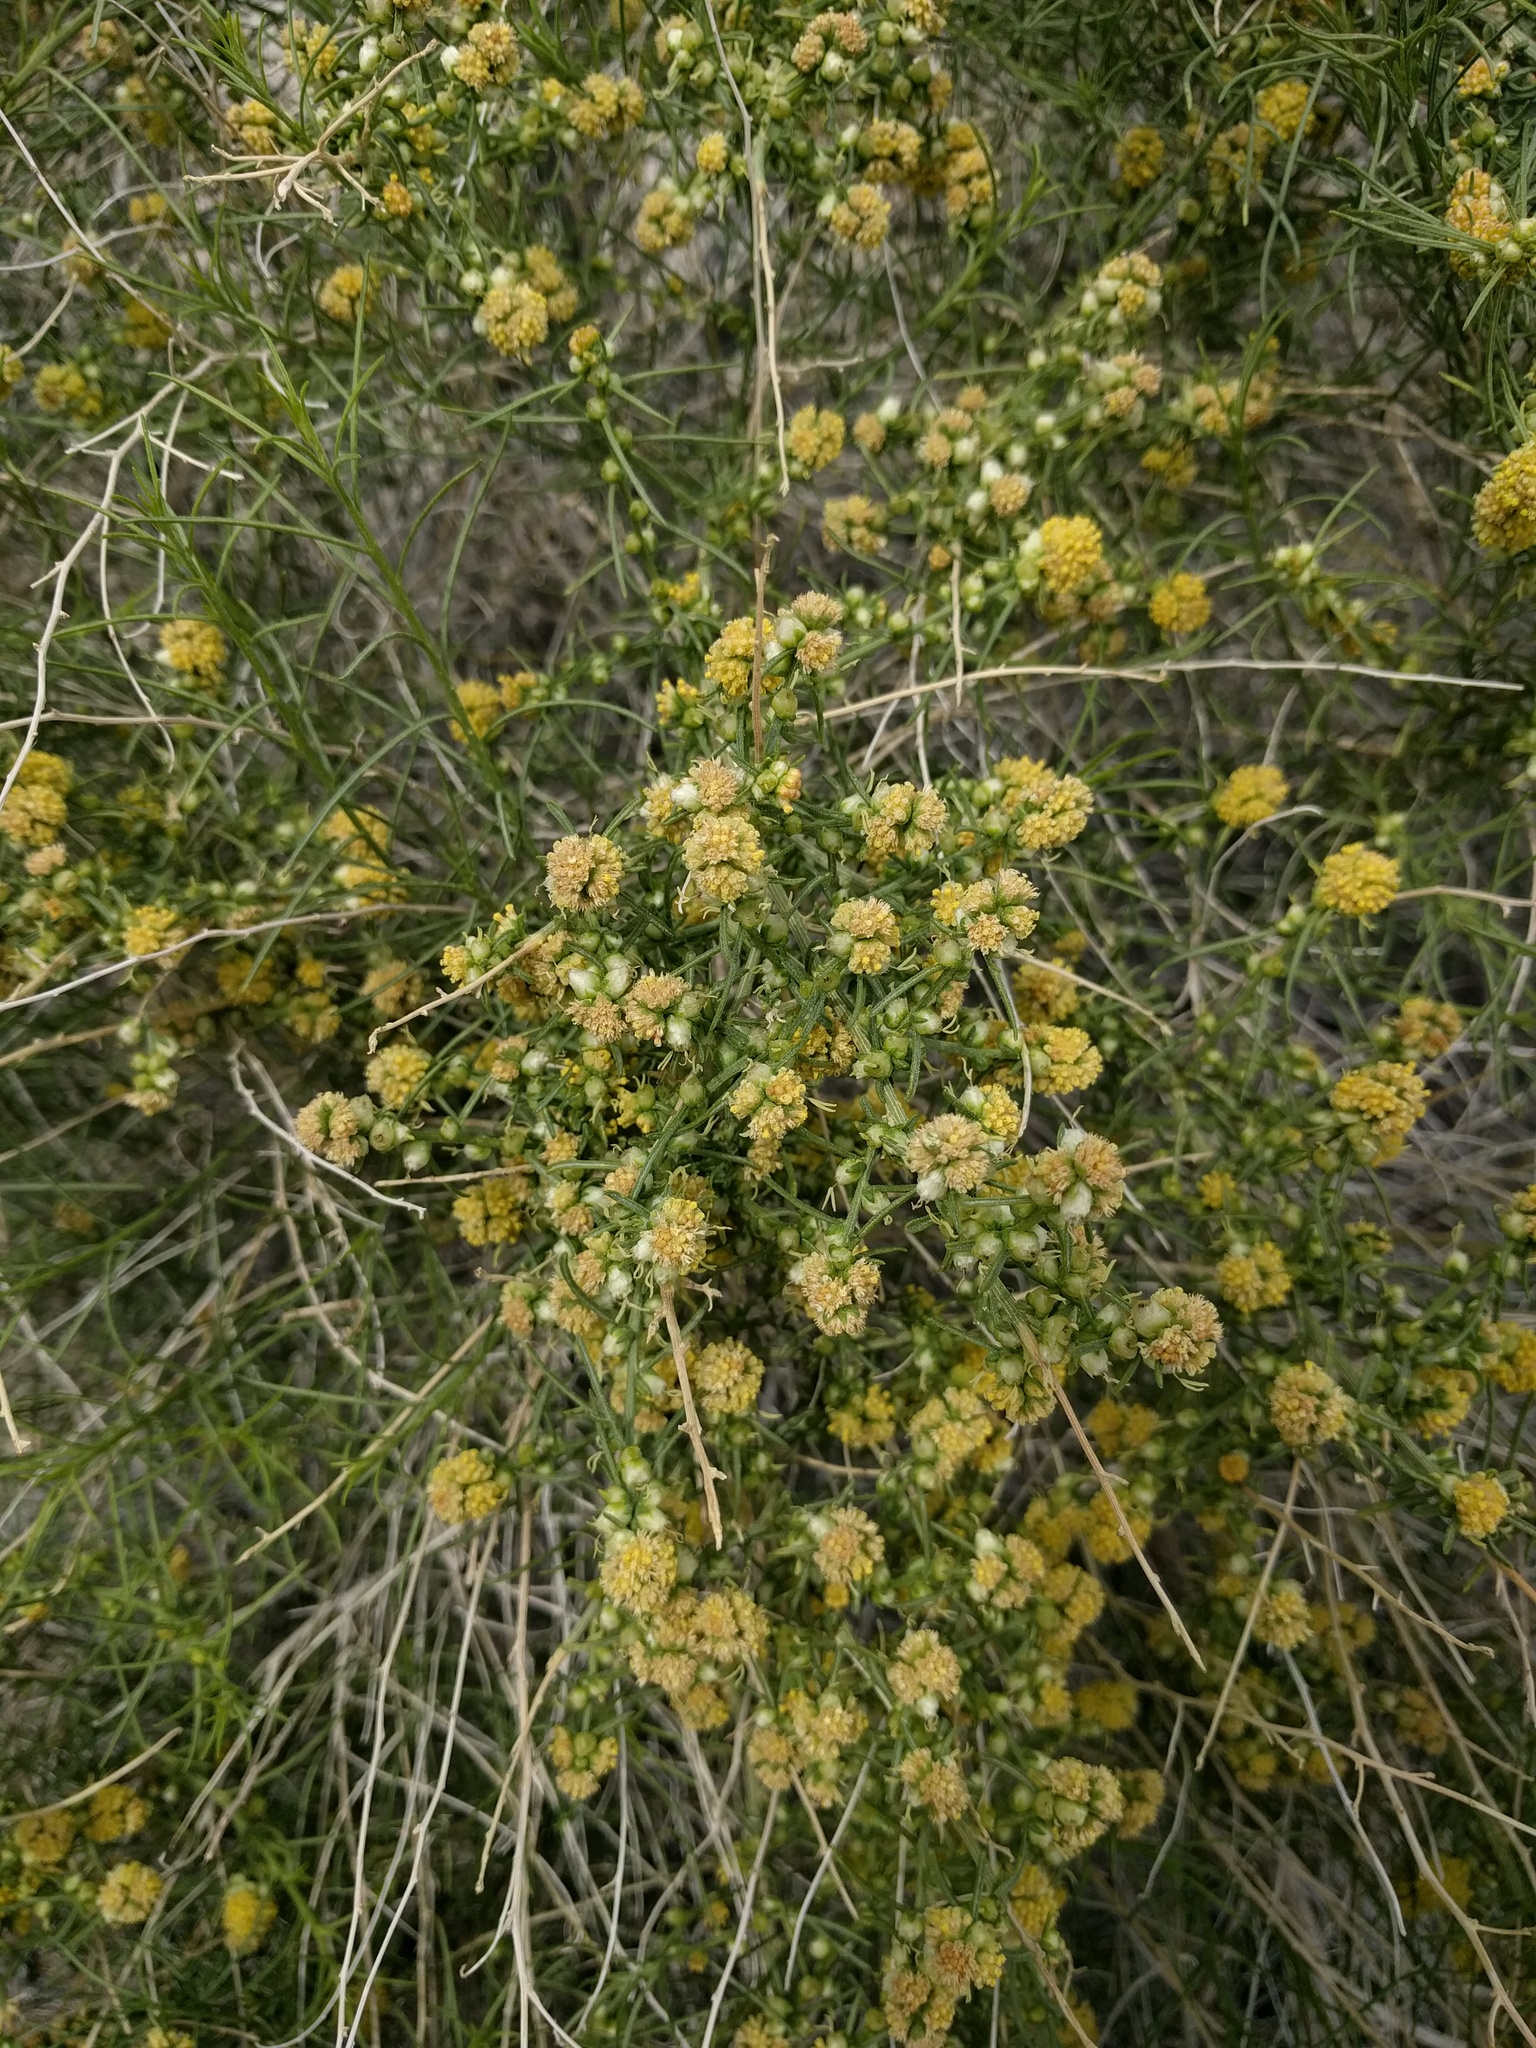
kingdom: Plantae
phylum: Tracheophyta
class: Magnoliopsida
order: Asterales
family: Asteraceae
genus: Ambrosia
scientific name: Ambrosia salsola
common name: Burrobrush
